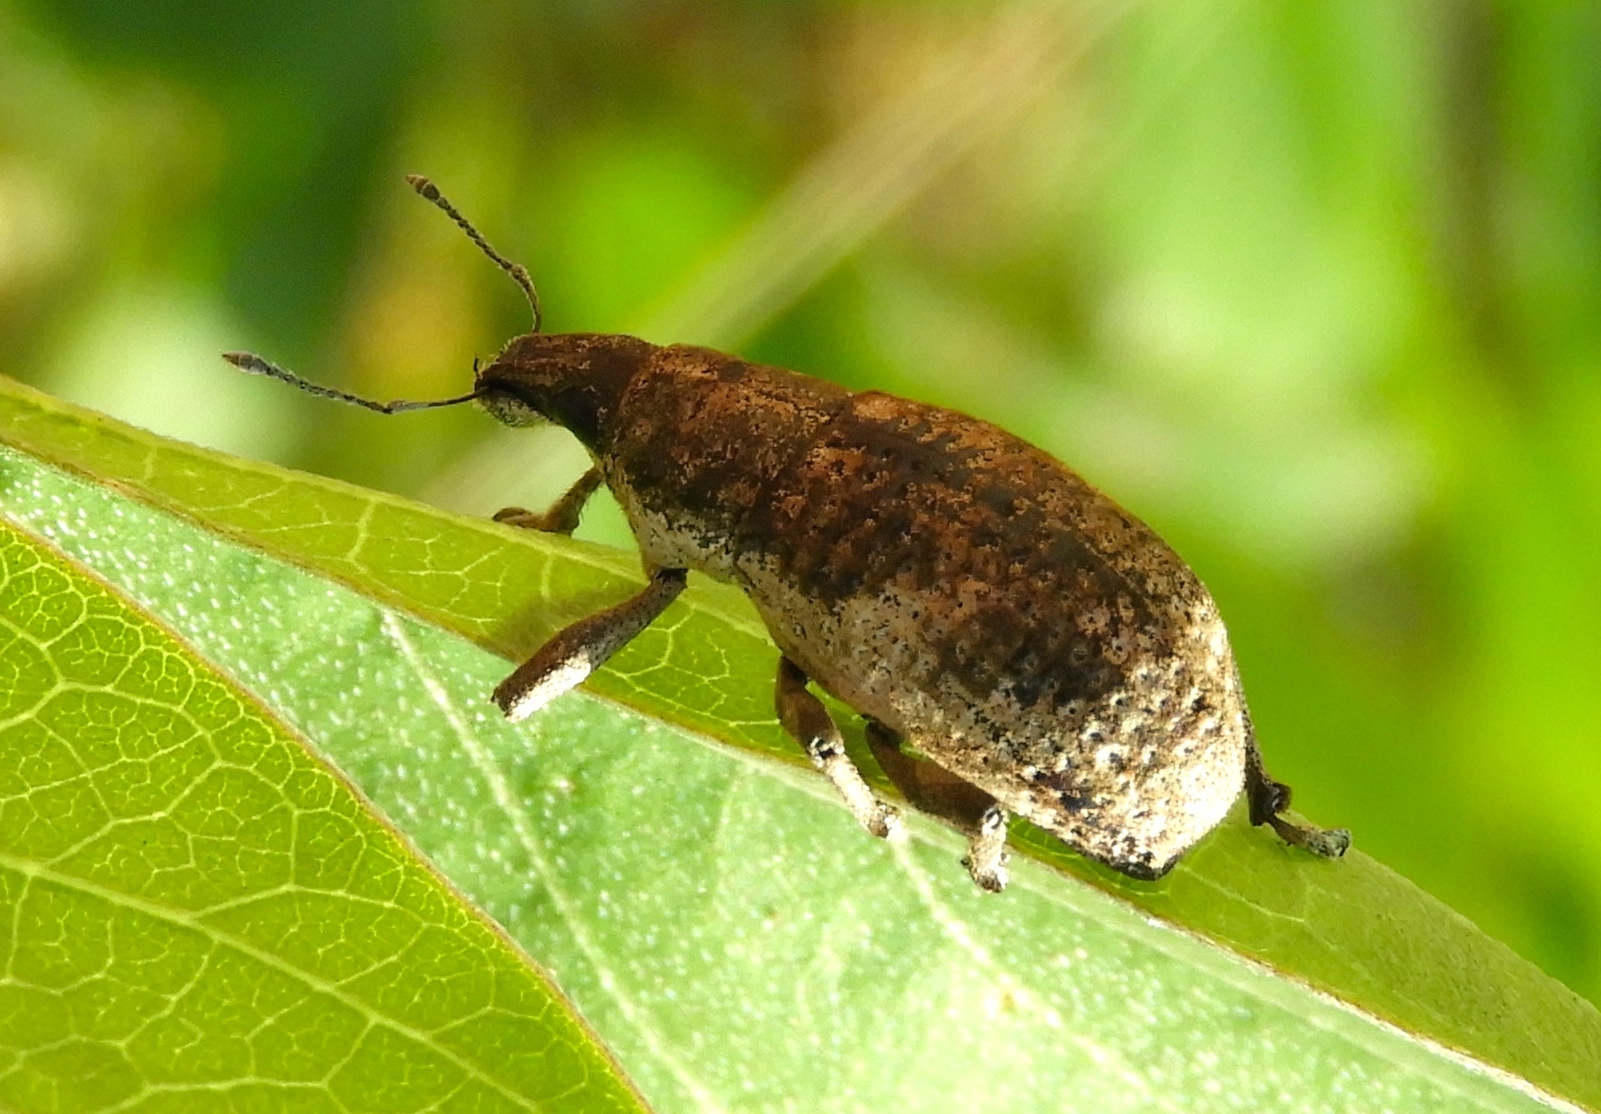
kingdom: Animalia
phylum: Arthropoda
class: Insecta
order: Coleoptera
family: Curculionidae
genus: Epicaerus
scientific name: Epicaerus
